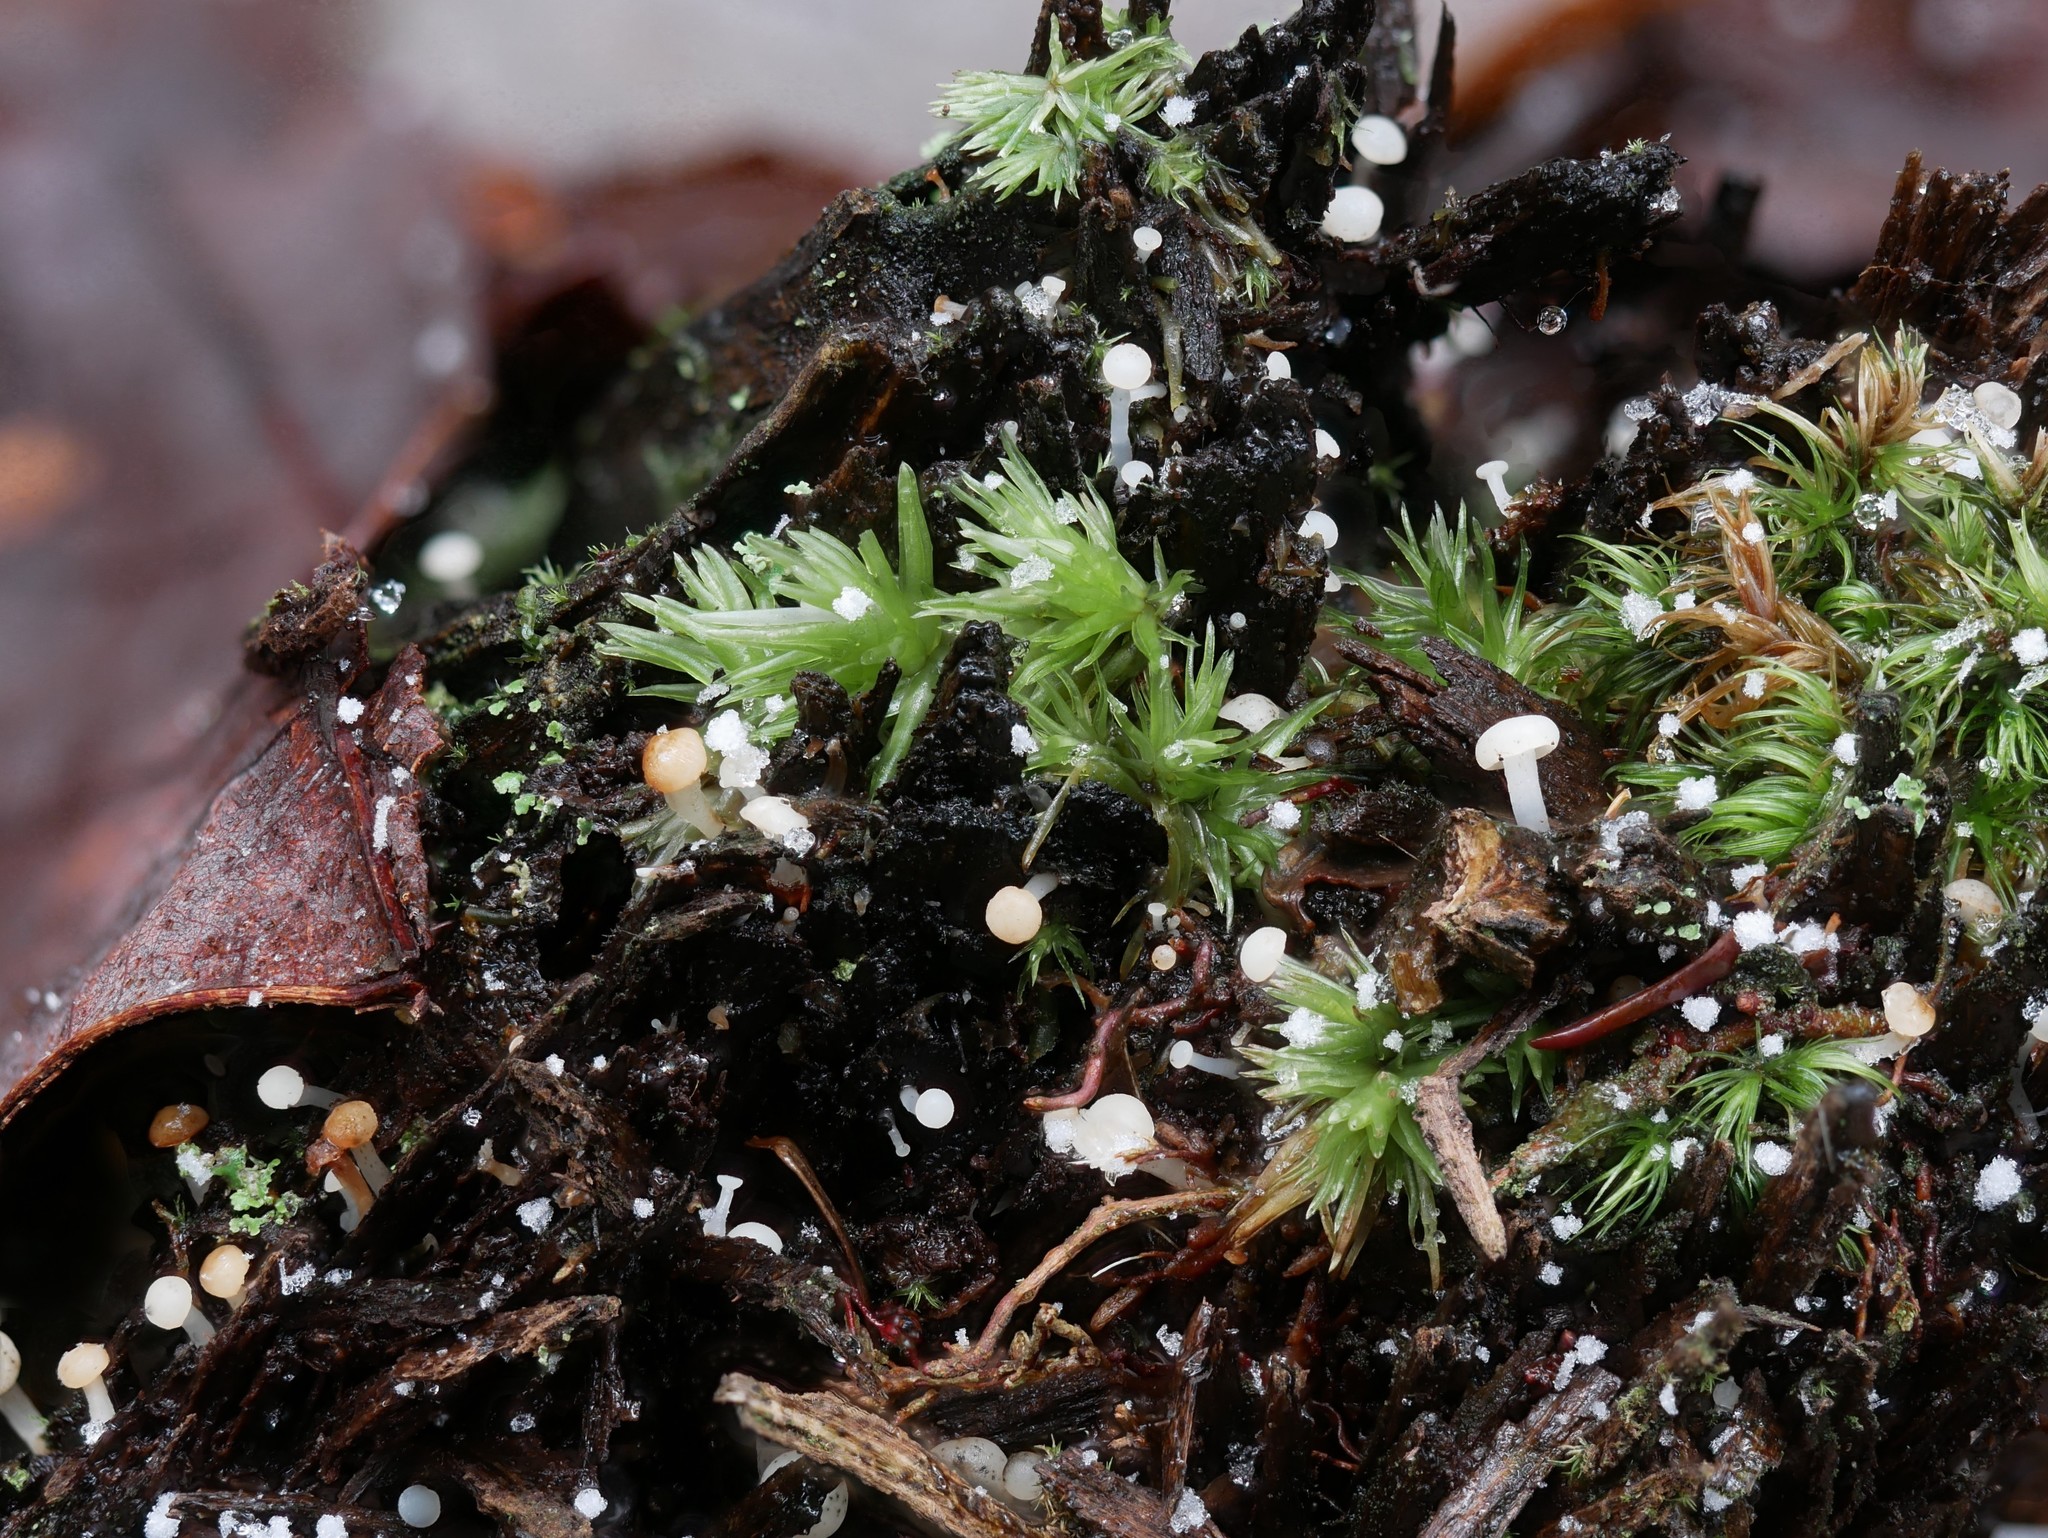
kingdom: Fungi
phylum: Ascomycota
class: Leotiomycetes
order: Helotiales
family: Tricladiaceae
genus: Cudoniella
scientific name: Cudoniella acicularis
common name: Oak pin
